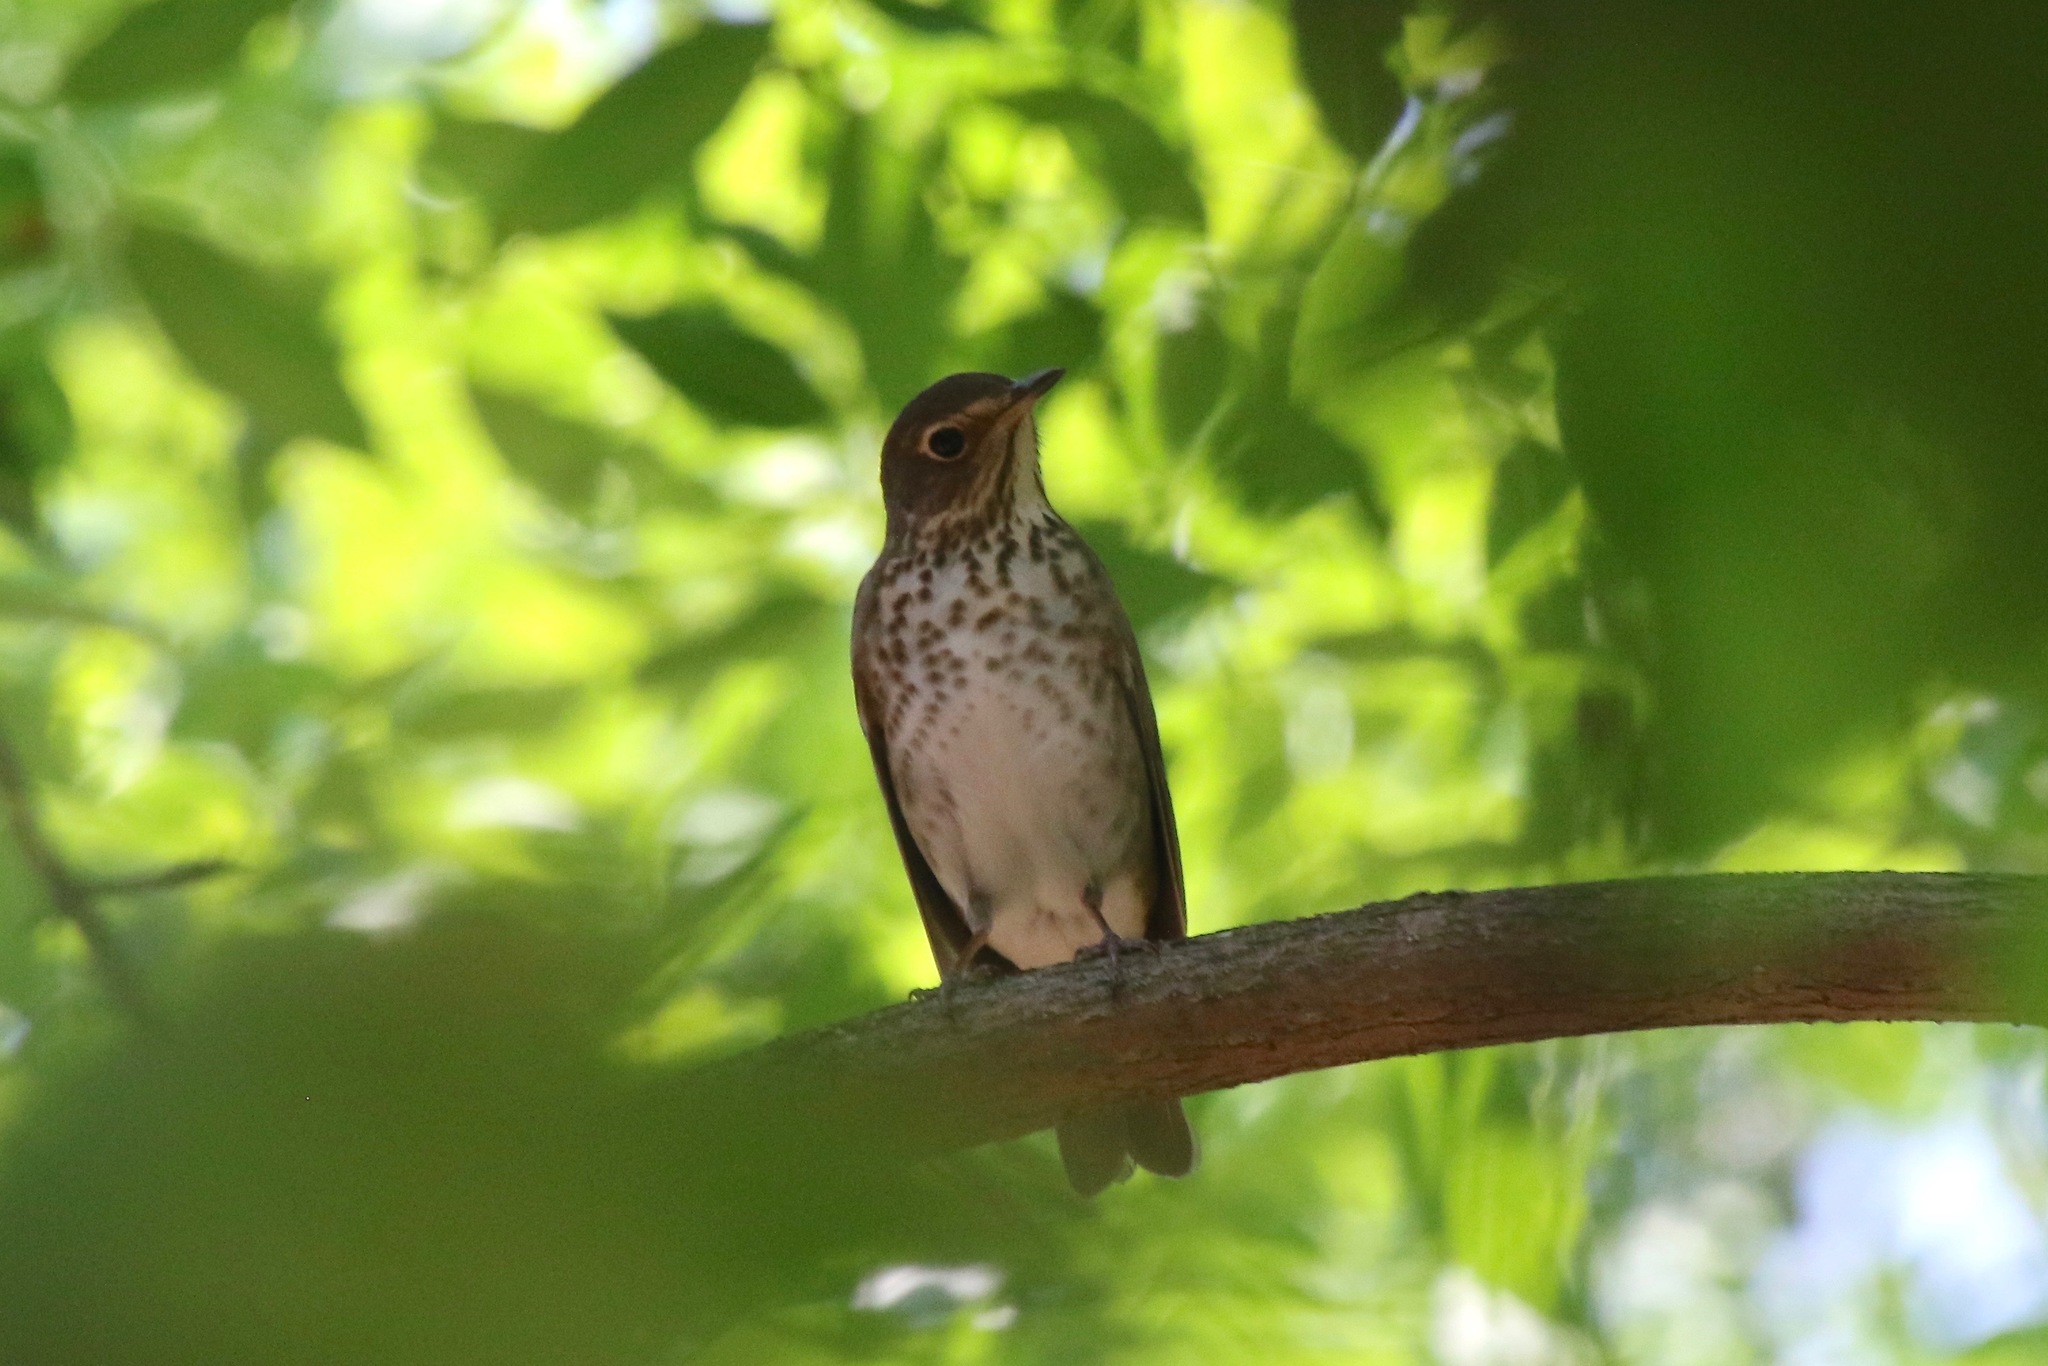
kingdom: Animalia
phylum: Chordata
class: Aves
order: Passeriformes
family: Turdidae
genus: Catharus
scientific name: Catharus ustulatus
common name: Swainson's thrush
